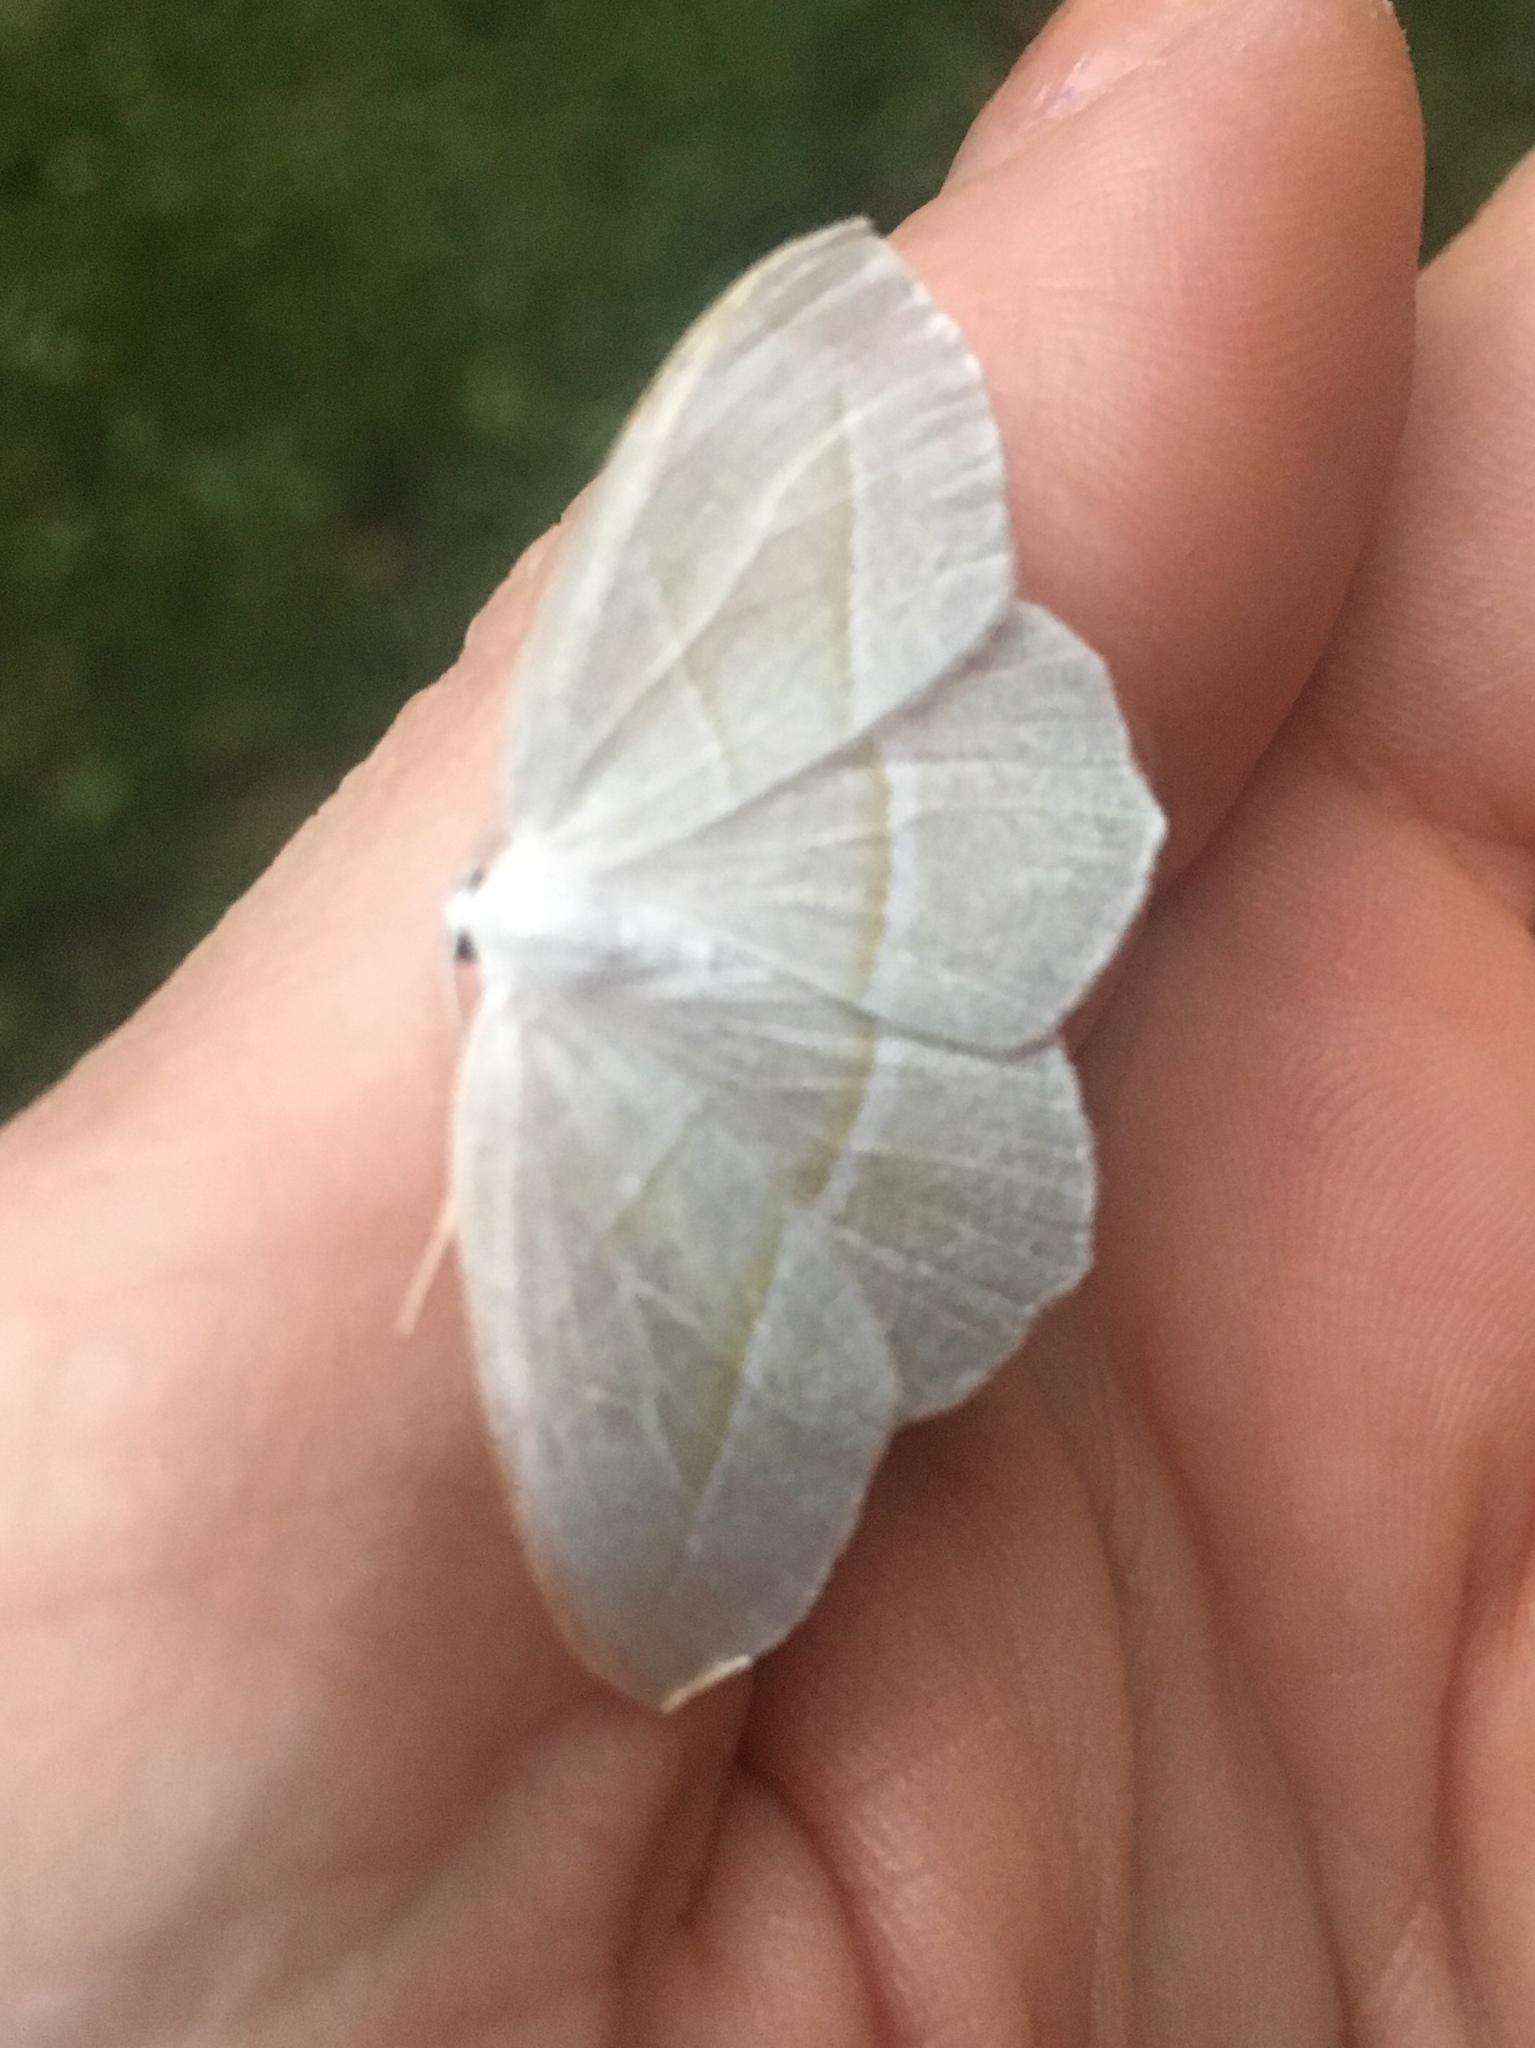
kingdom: Animalia
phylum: Arthropoda
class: Insecta
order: Lepidoptera
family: Geometridae
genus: Campaea
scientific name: Campaea perlata
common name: Fringed looper
